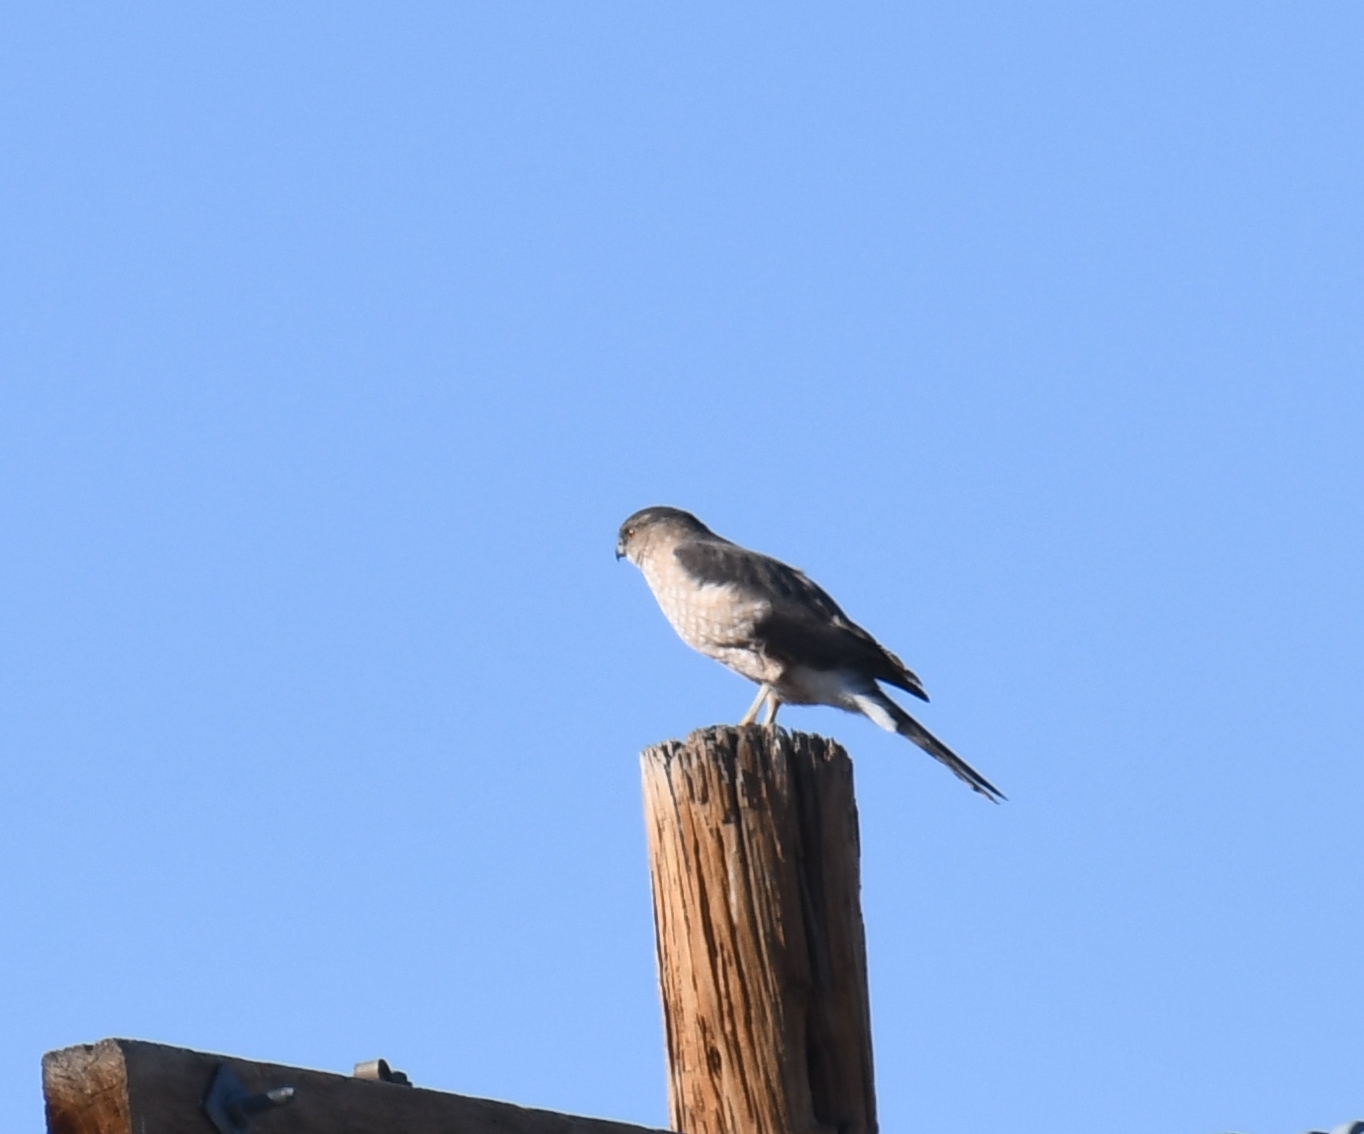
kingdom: Animalia
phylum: Chordata
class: Aves
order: Accipitriformes
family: Accipitridae
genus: Accipiter
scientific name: Accipiter cooperii
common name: Cooper's hawk
